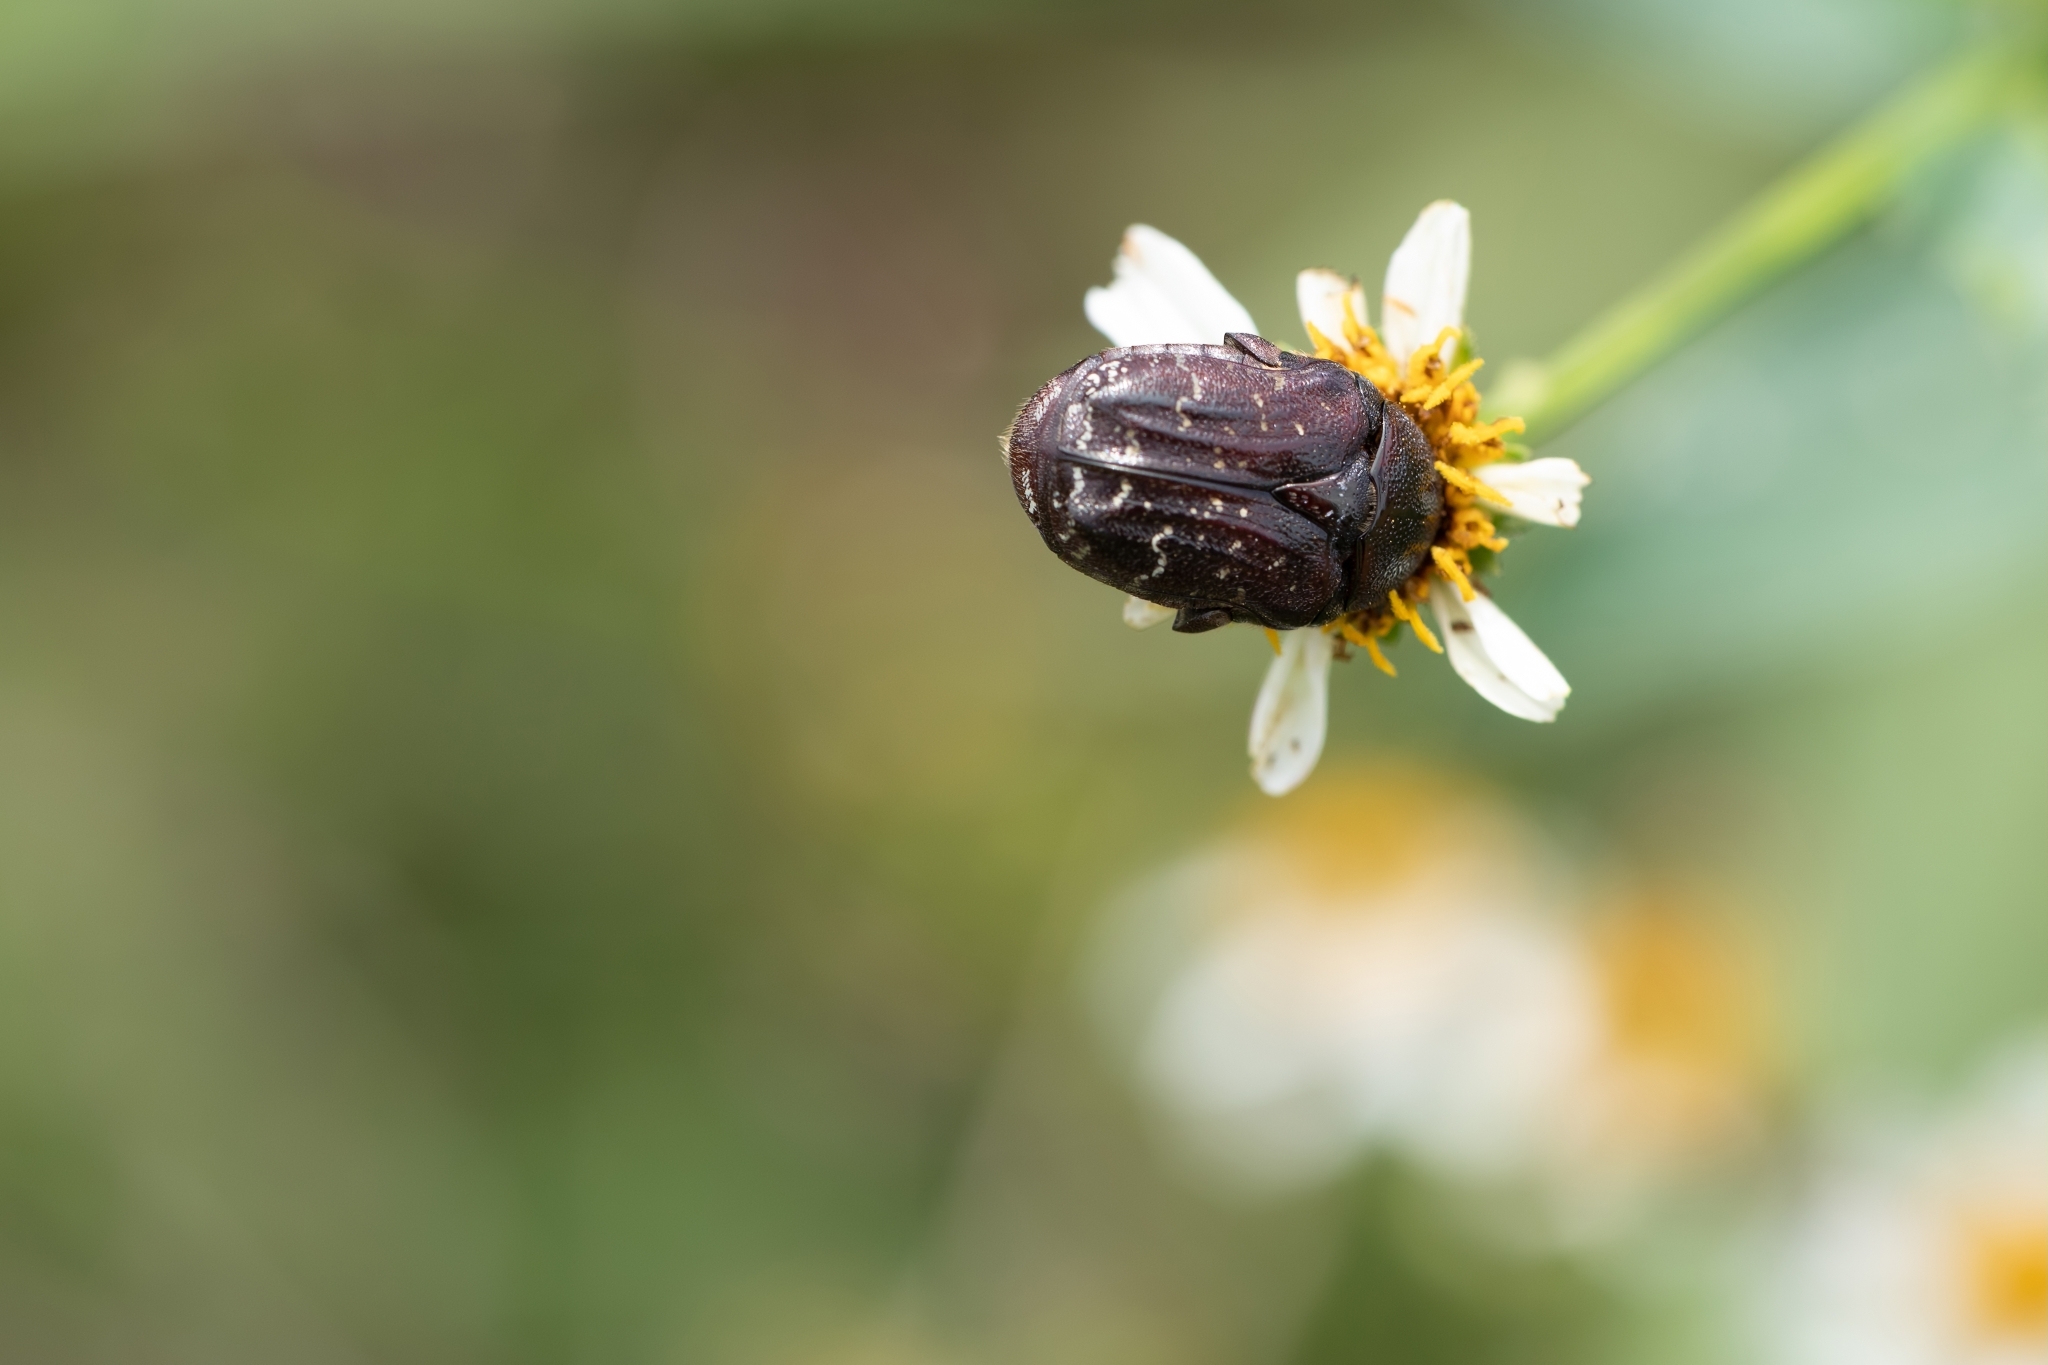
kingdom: Animalia
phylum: Arthropoda
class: Insecta
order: Coleoptera
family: Scarabaeidae
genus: Euphoria
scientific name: Euphoria sepulcralis
